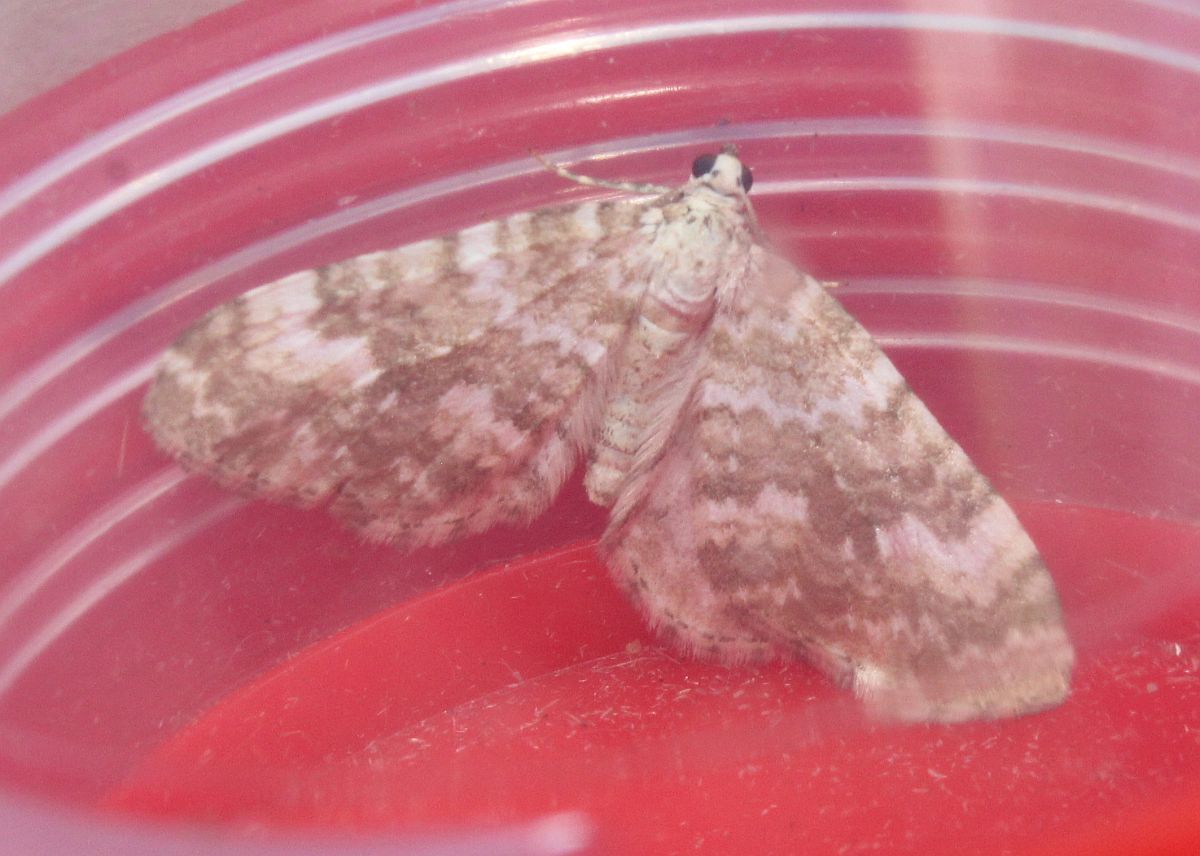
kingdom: Animalia
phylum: Arthropoda
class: Insecta
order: Lepidoptera
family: Geometridae
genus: Perizoma
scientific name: Perizoma flavofasciata
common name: Sandy carpet
